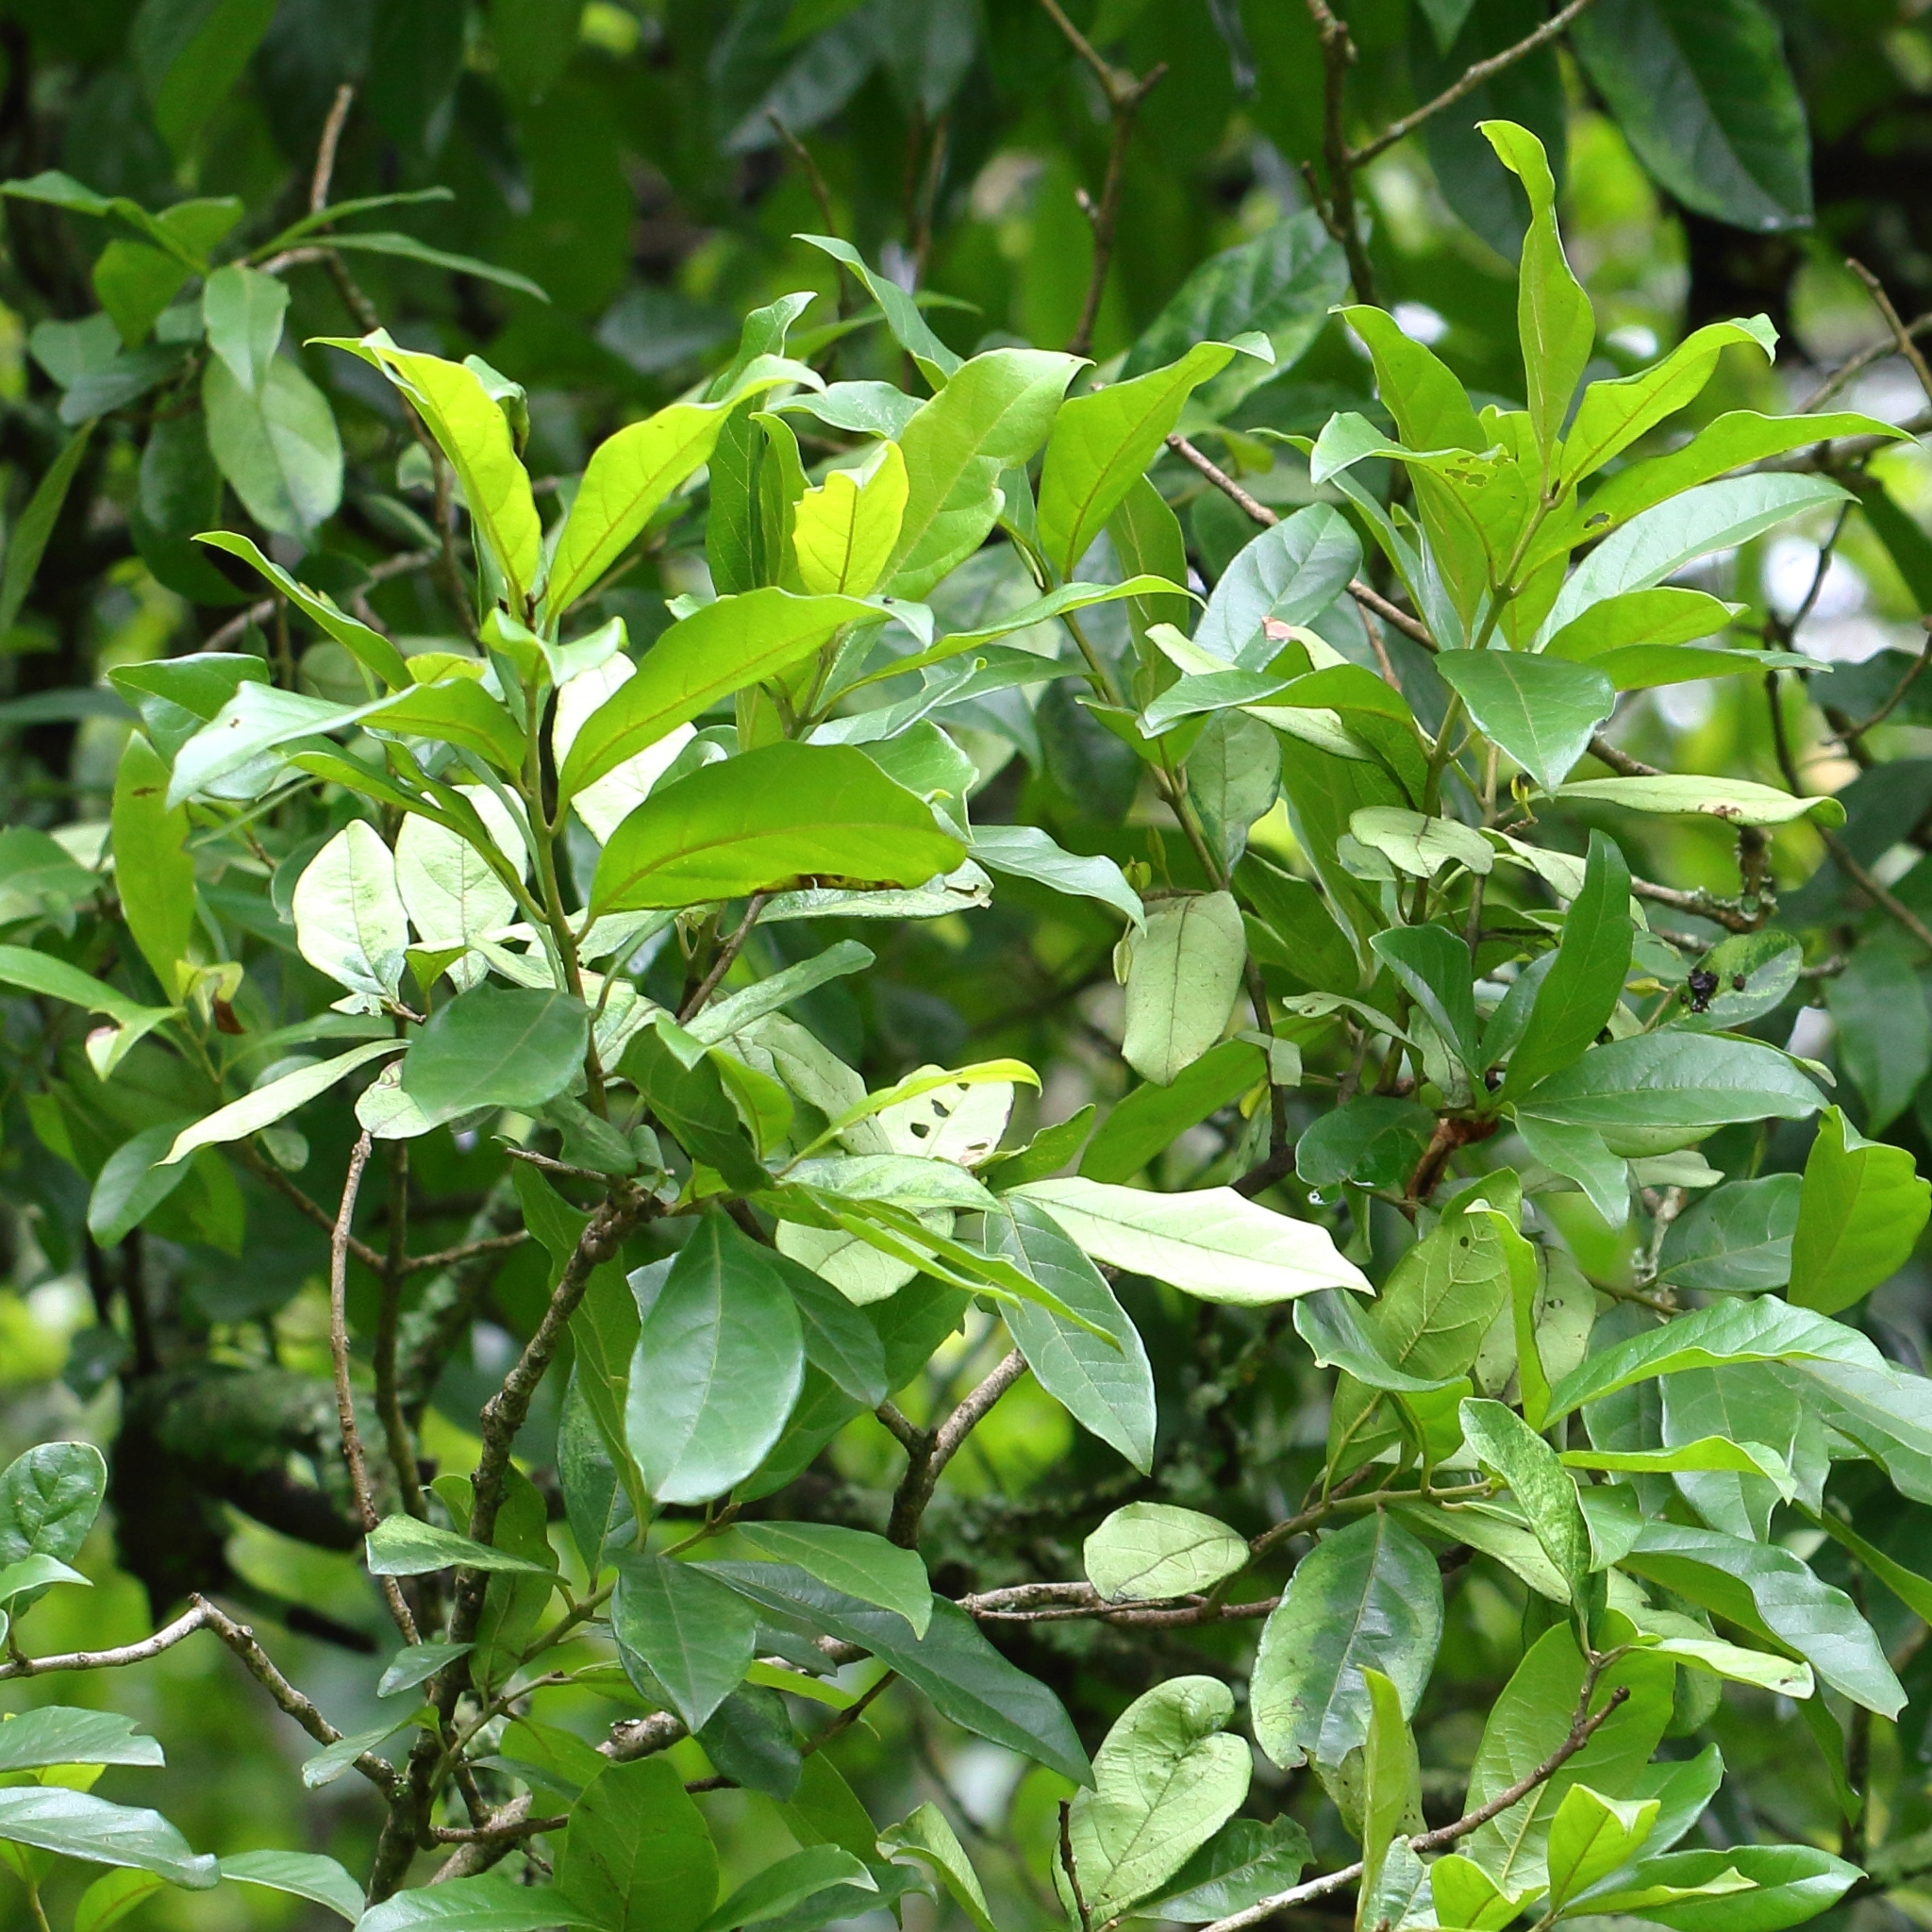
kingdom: Plantae
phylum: Tracheophyta
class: Magnoliopsida
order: Myrtales
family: Combretaceae
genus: Combretum
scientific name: Combretum kraussii
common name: Forest bushwillow
